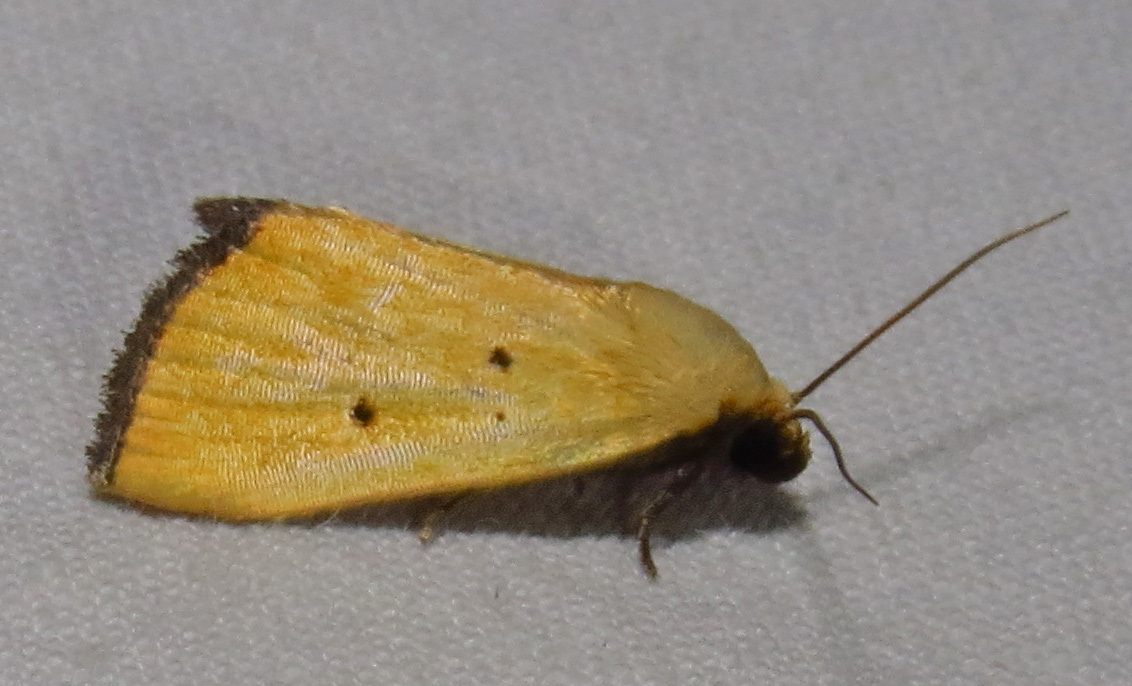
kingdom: Animalia
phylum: Arthropoda
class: Insecta
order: Lepidoptera
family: Noctuidae
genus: Marimatha
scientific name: Marimatha nigrofimbria
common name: Black-bordered lemon moth
